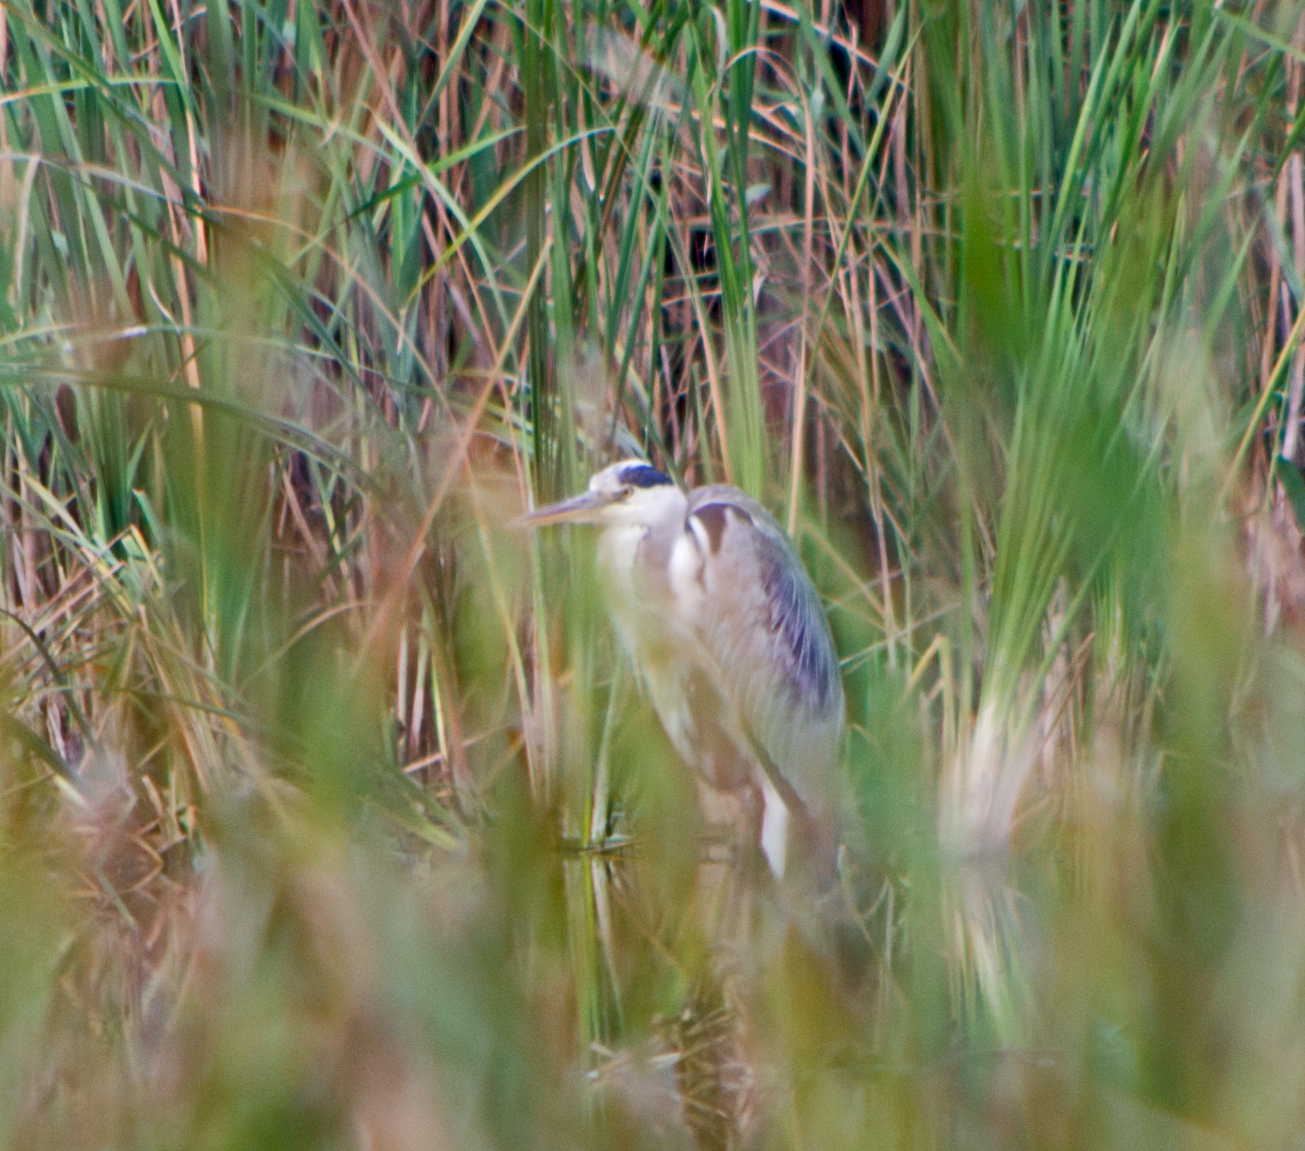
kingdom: Animalia
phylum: Chordata
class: Aves
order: Pelecaniformes
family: Ardeidae
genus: Ardea
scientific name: Ardea cinerea
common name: Grey heron
